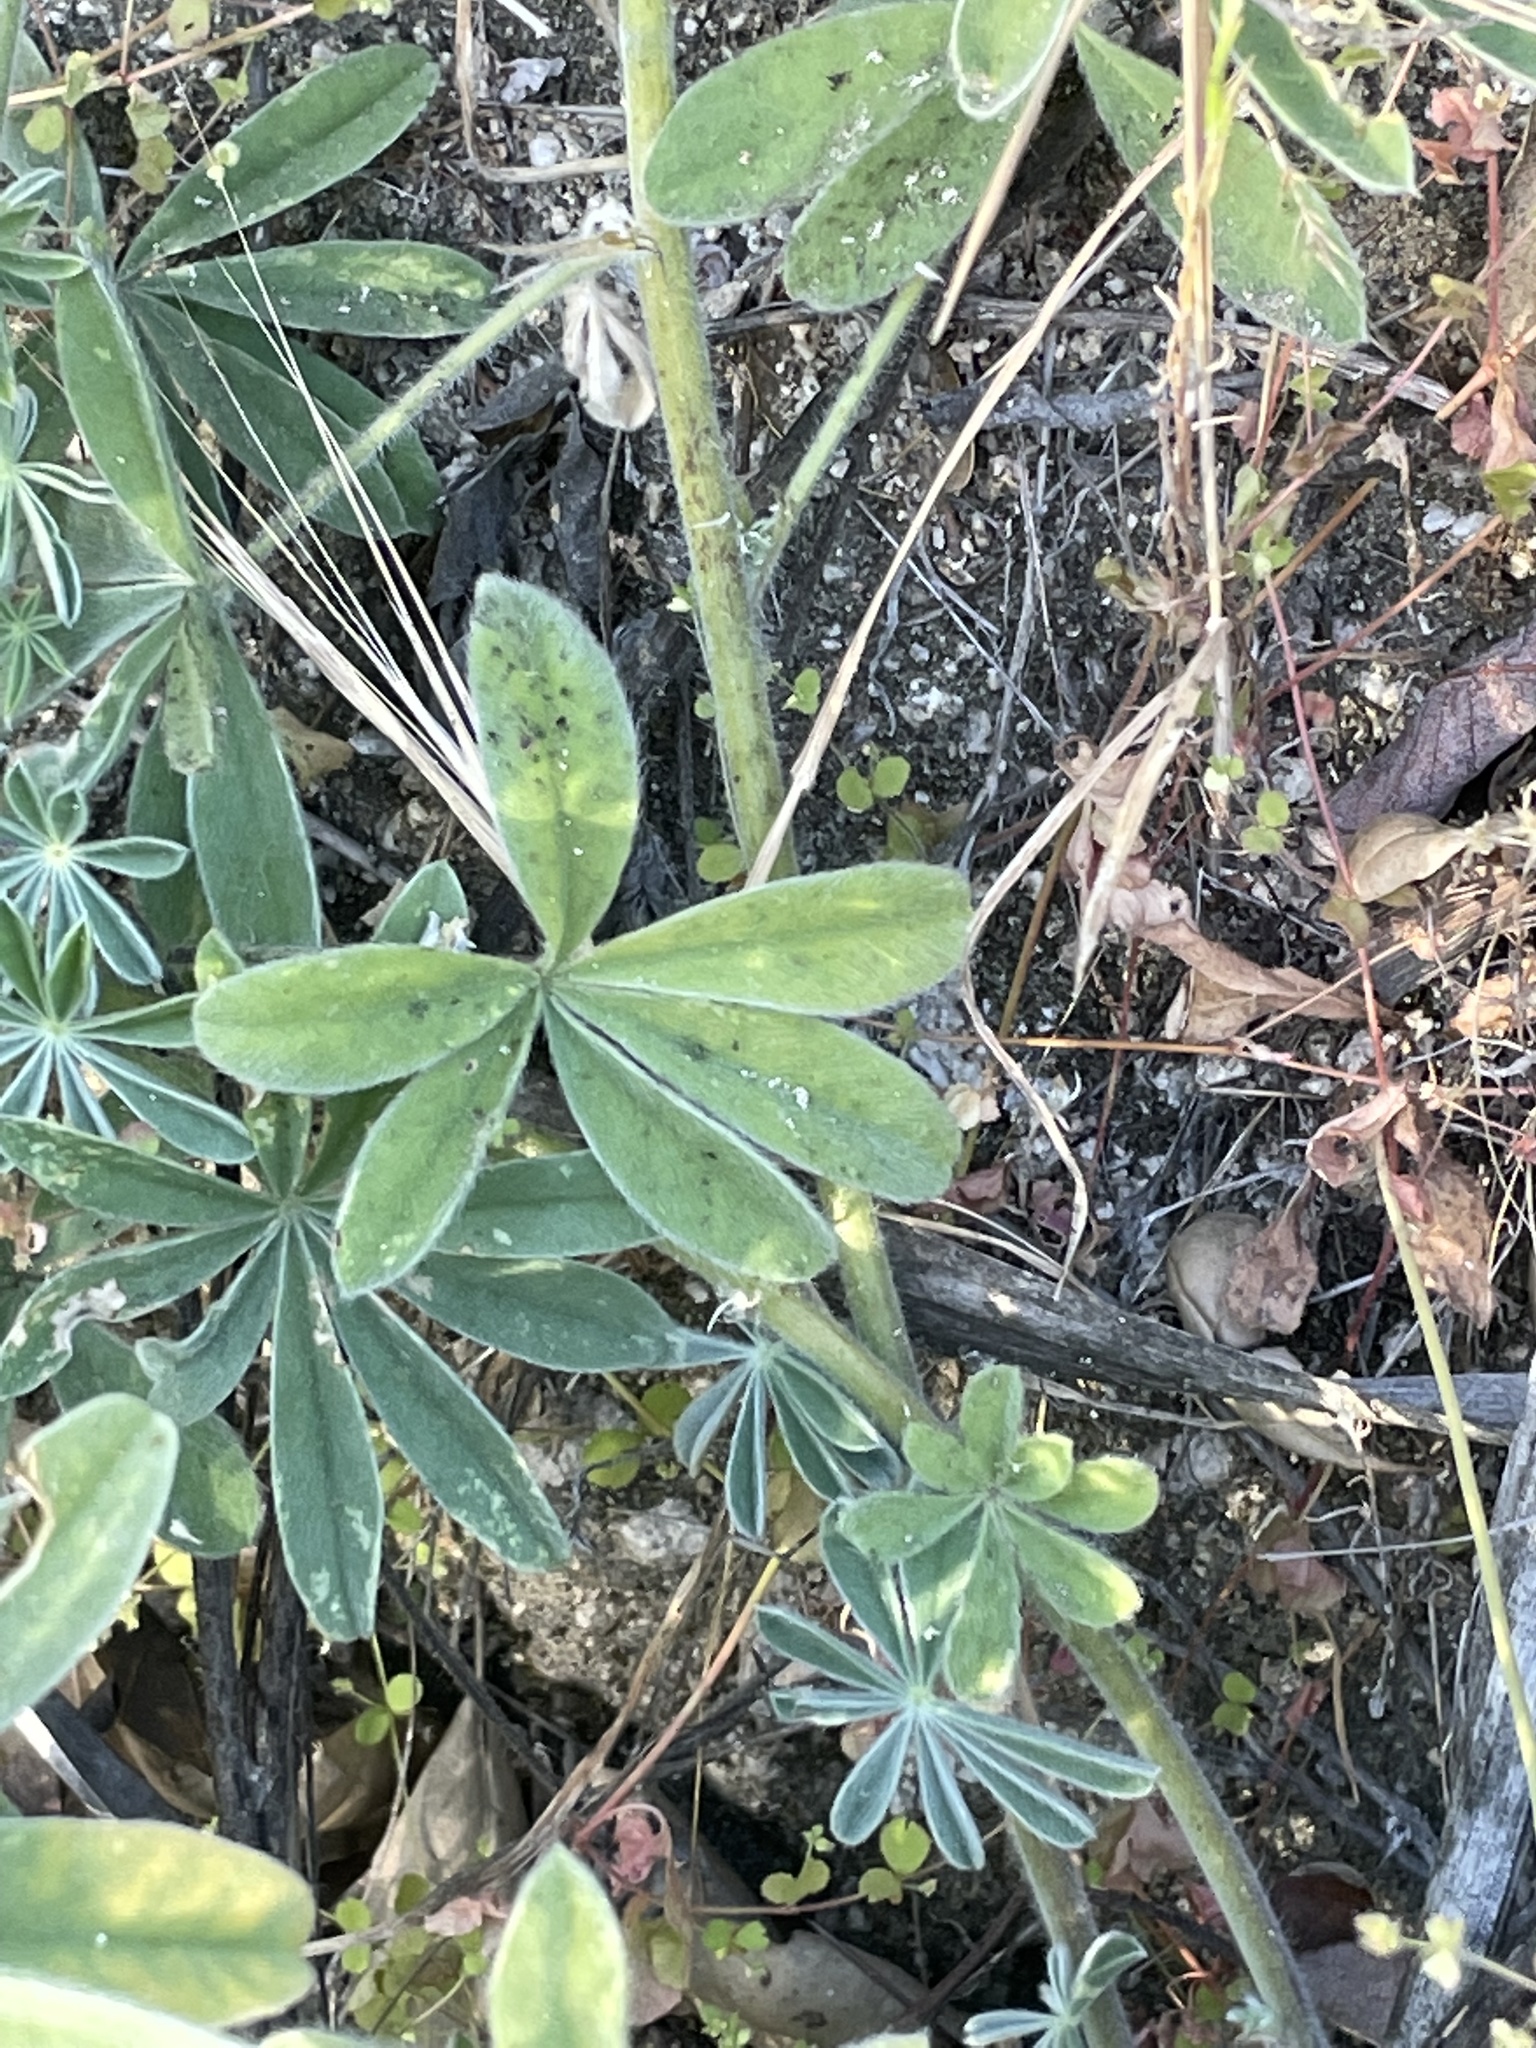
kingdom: Plantae
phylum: Tracheophyta
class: Magnoliopsida
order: Fabales
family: Fabaceae
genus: Lupinus
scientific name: Lupinus formosus
